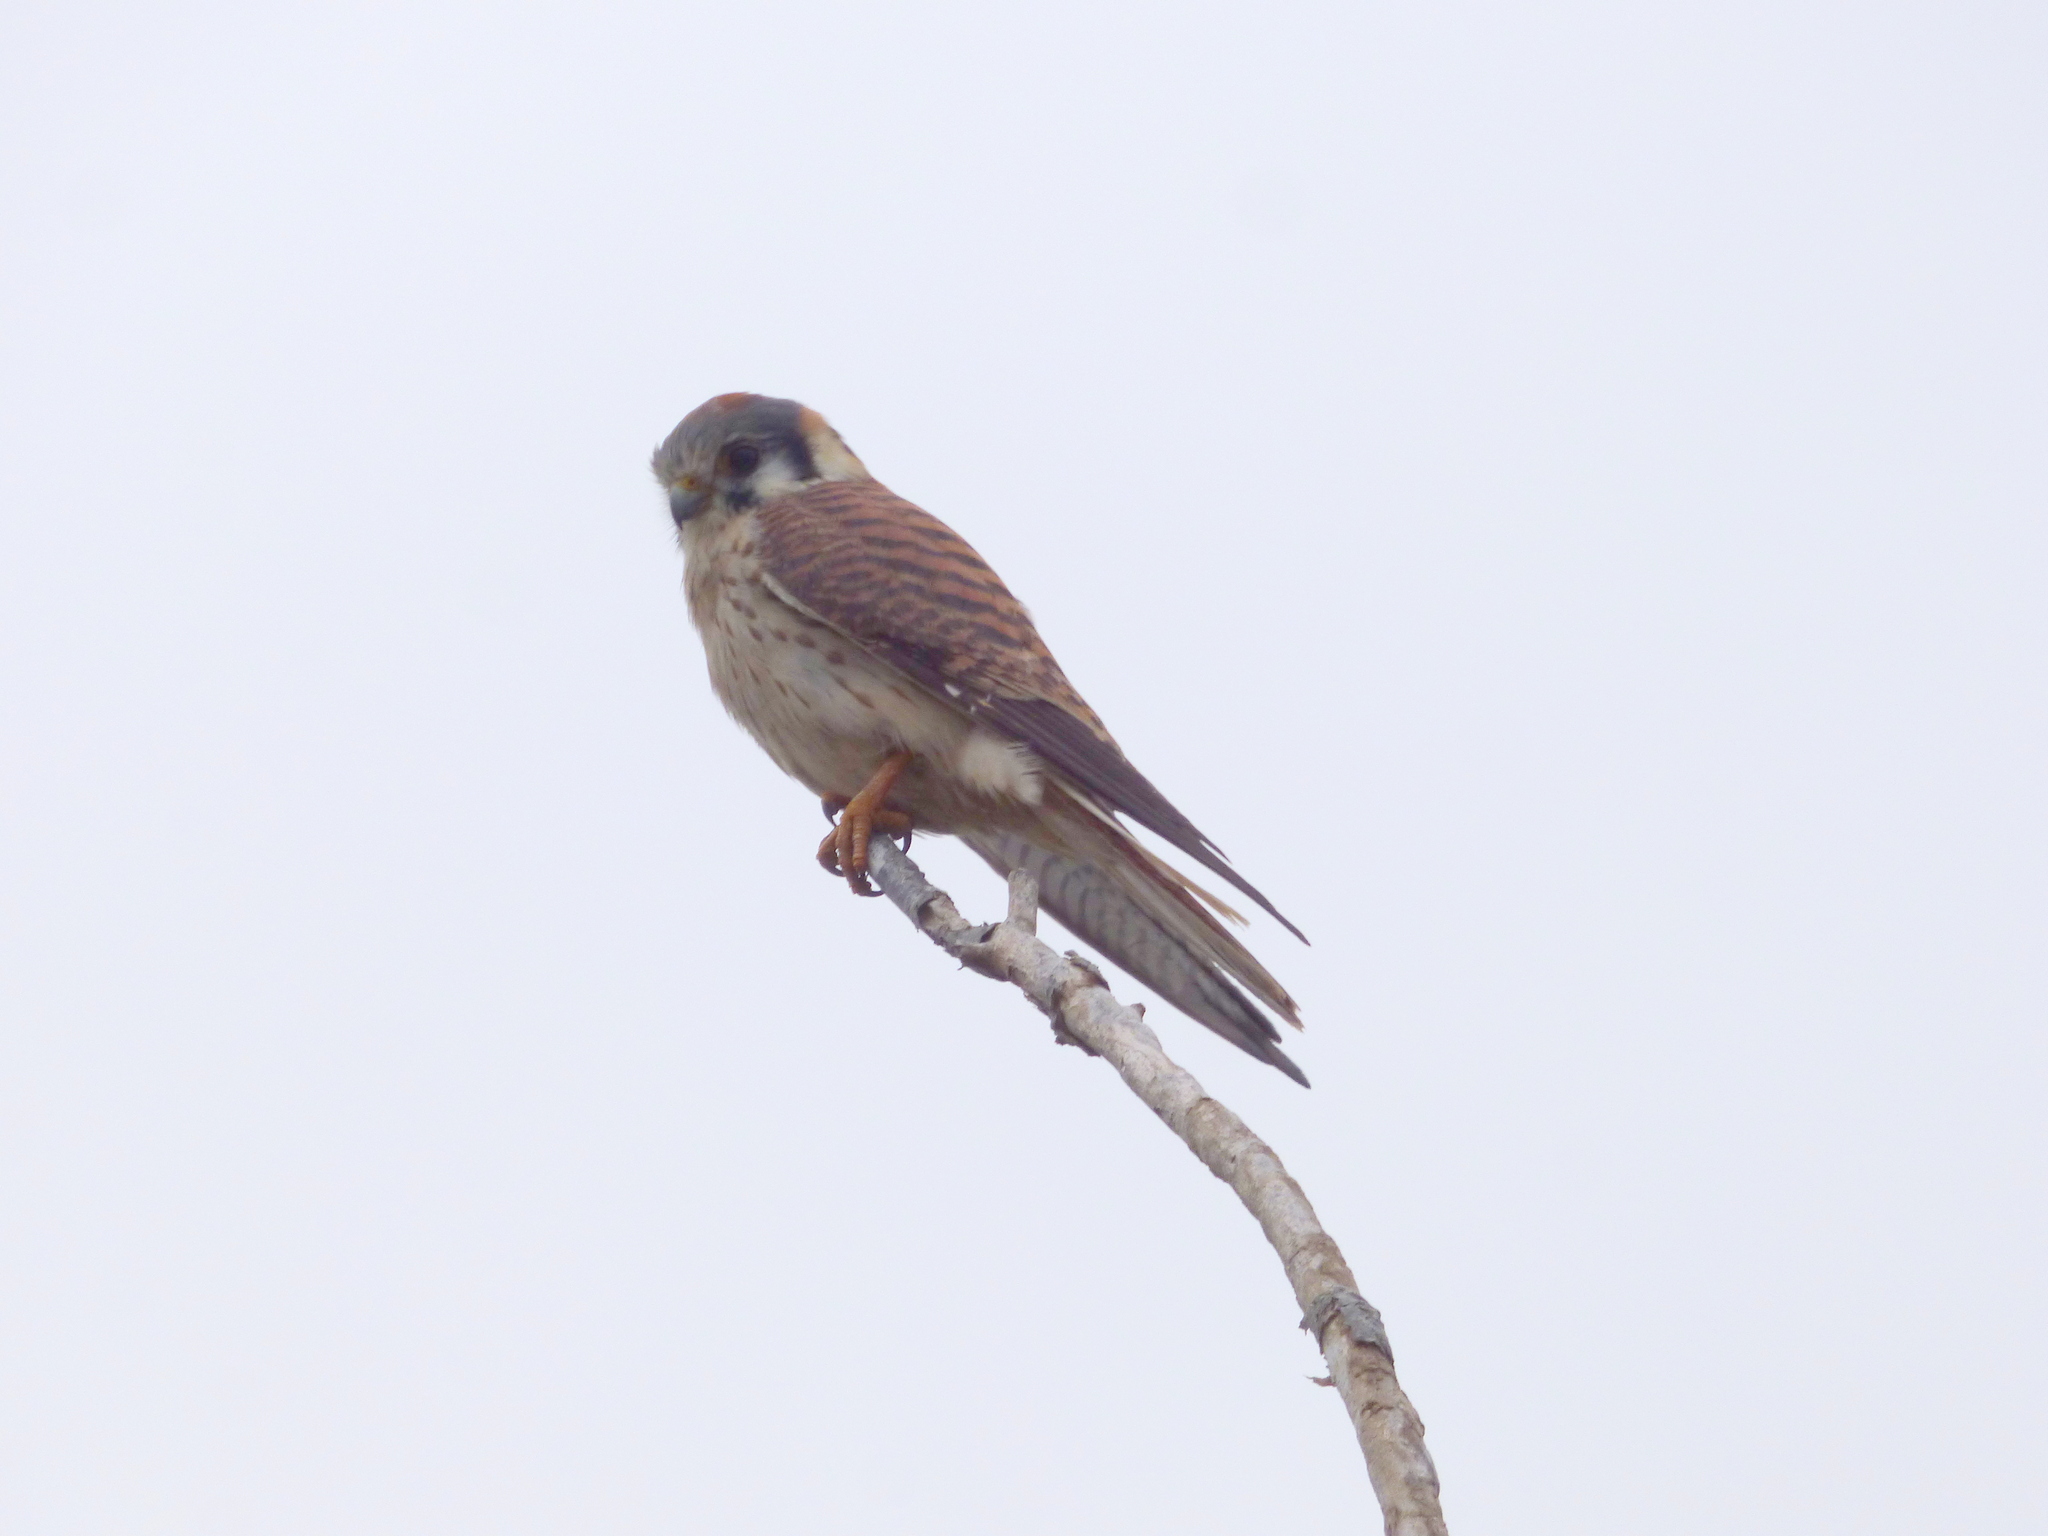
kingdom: Animalia
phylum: Chordata
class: Aves
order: Falconiformes
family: Falconidae
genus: Falco
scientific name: Falco sparverius
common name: American kestrel
